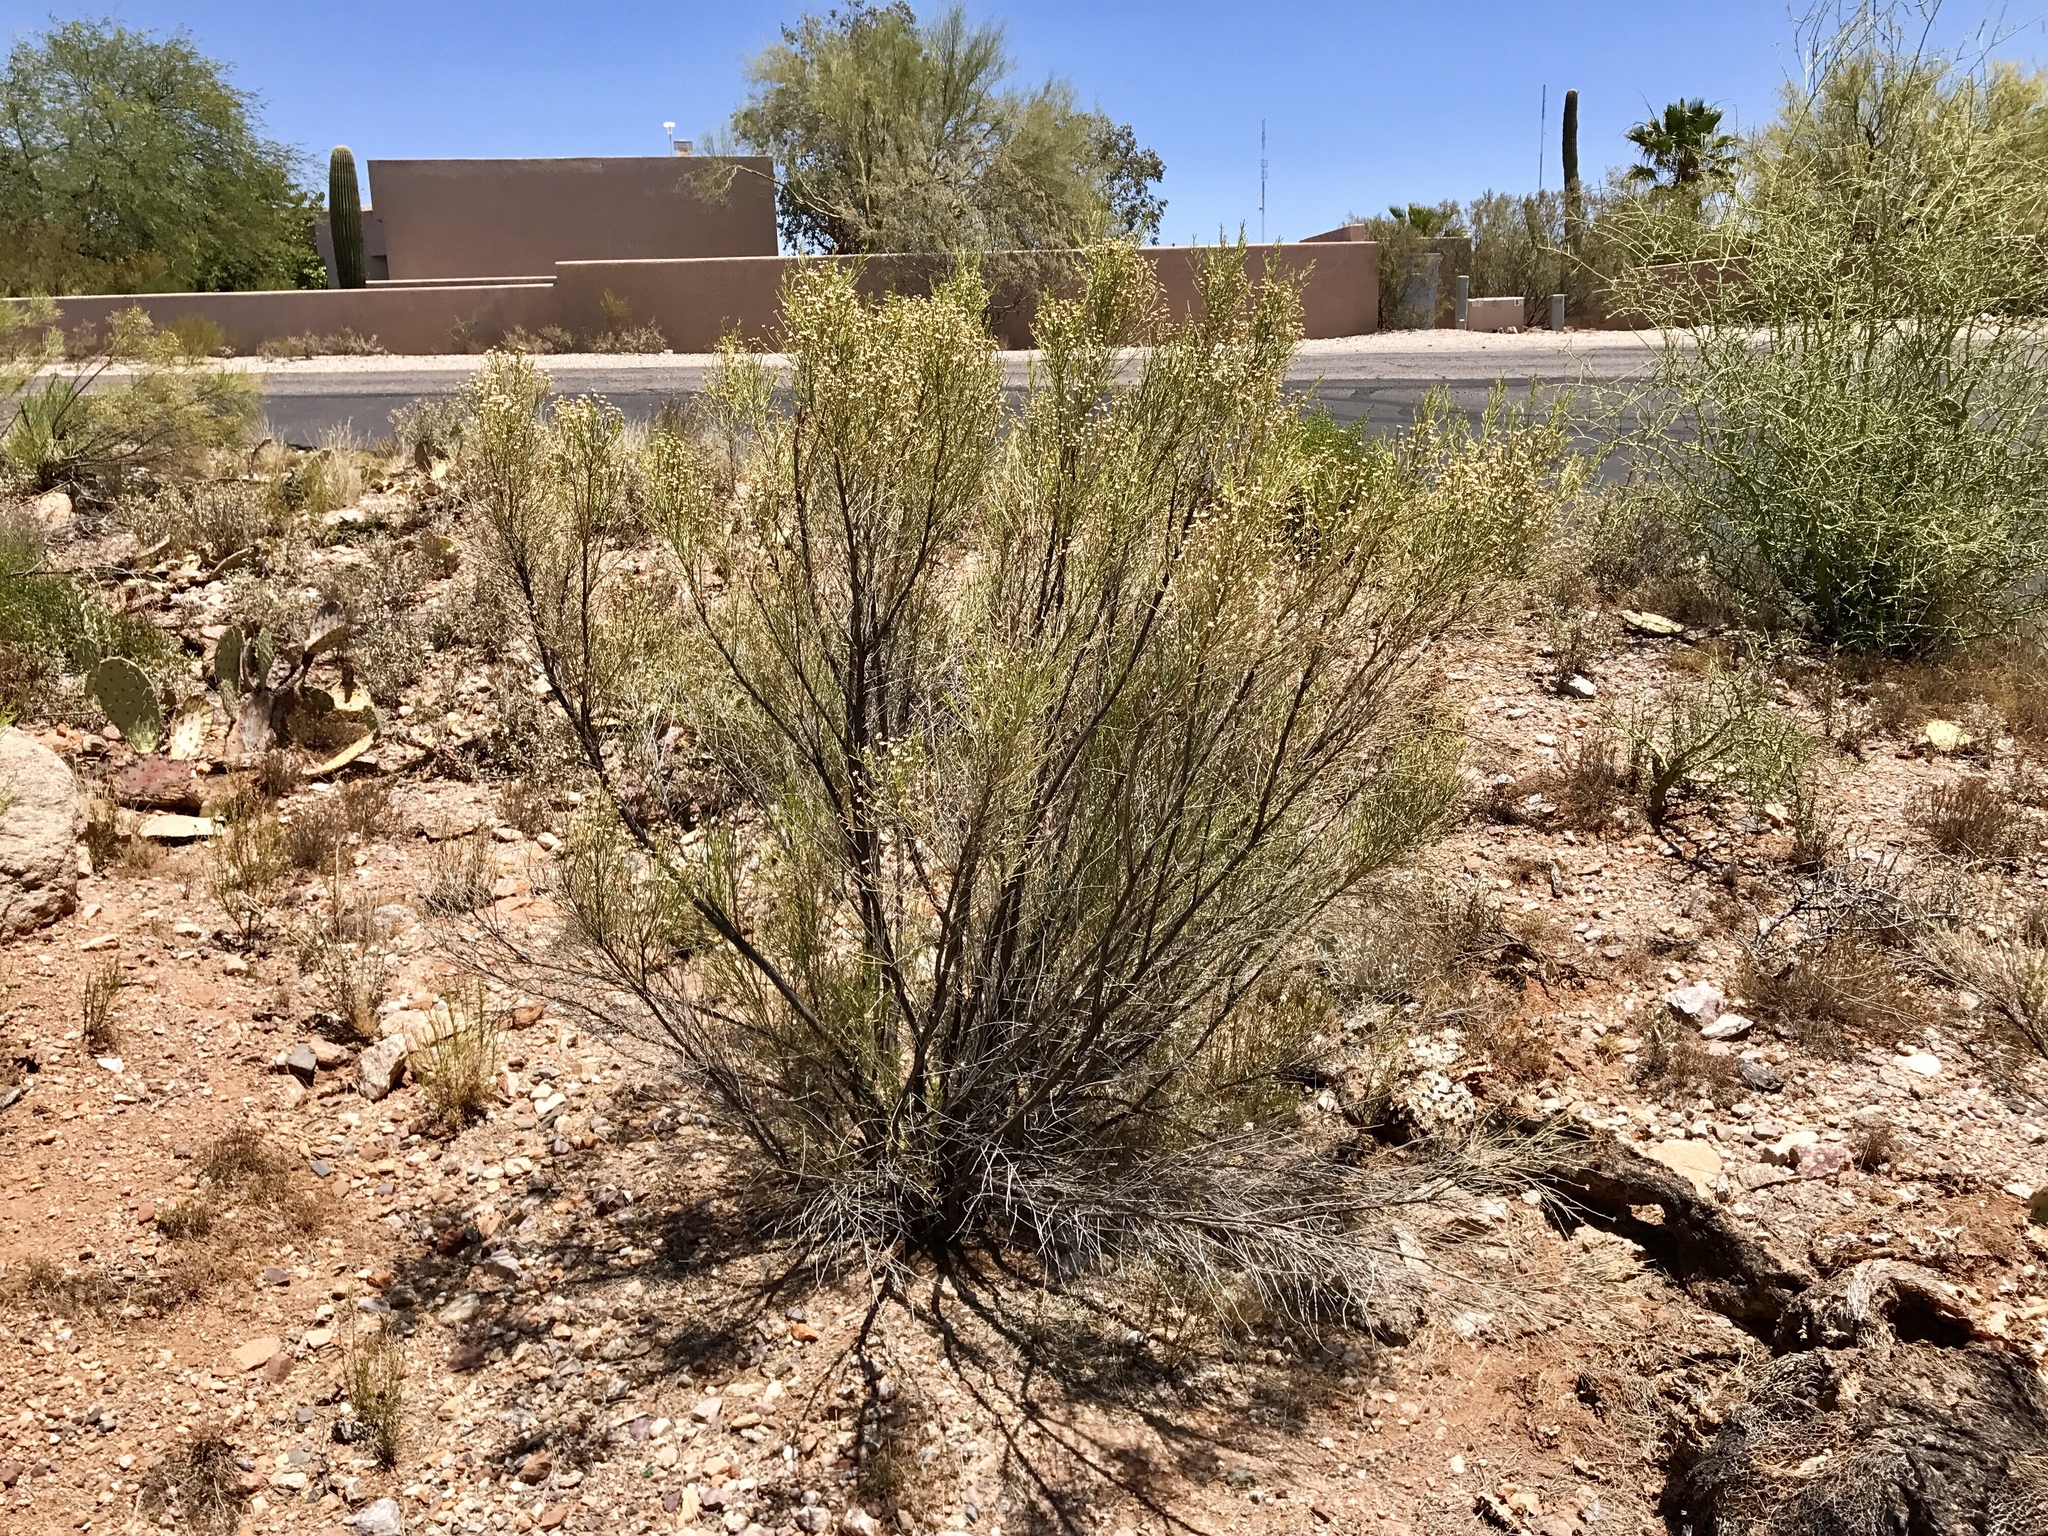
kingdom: Plantae
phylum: Tracheophyta
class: Magnoliopsida
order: Asterales
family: Asteraceae
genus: Baccharis
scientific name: Baccharis sarothroides
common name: Desert-broom
